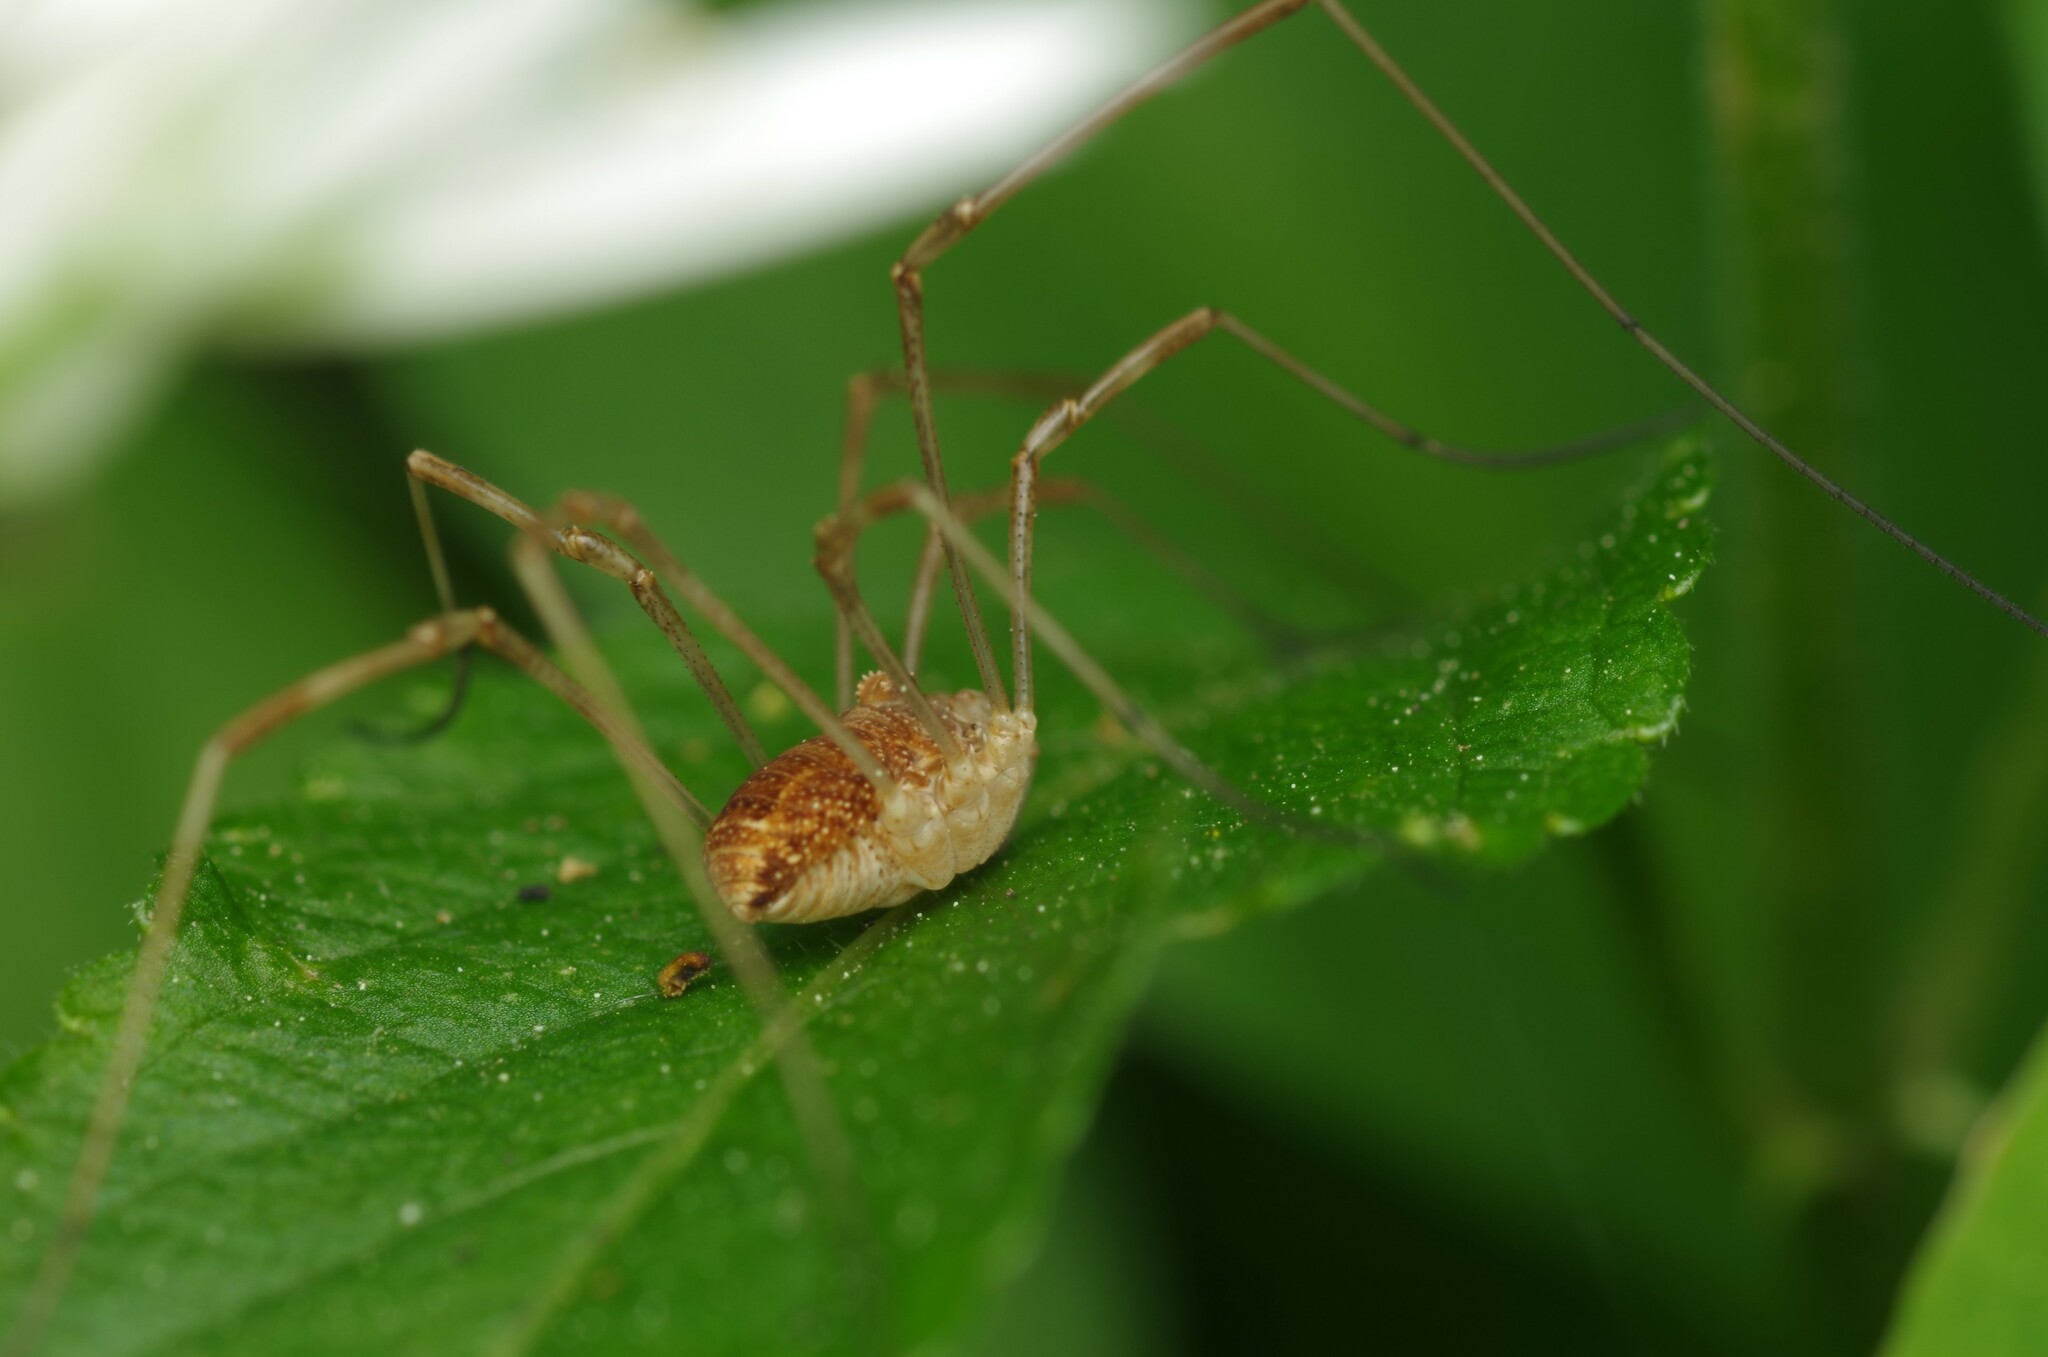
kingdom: Animalia
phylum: Arthropoda
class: Arachnida
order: Opiliones
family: Phalangiidae
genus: Rilaena
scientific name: Rilaena triangularis
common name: Spring harvestman
